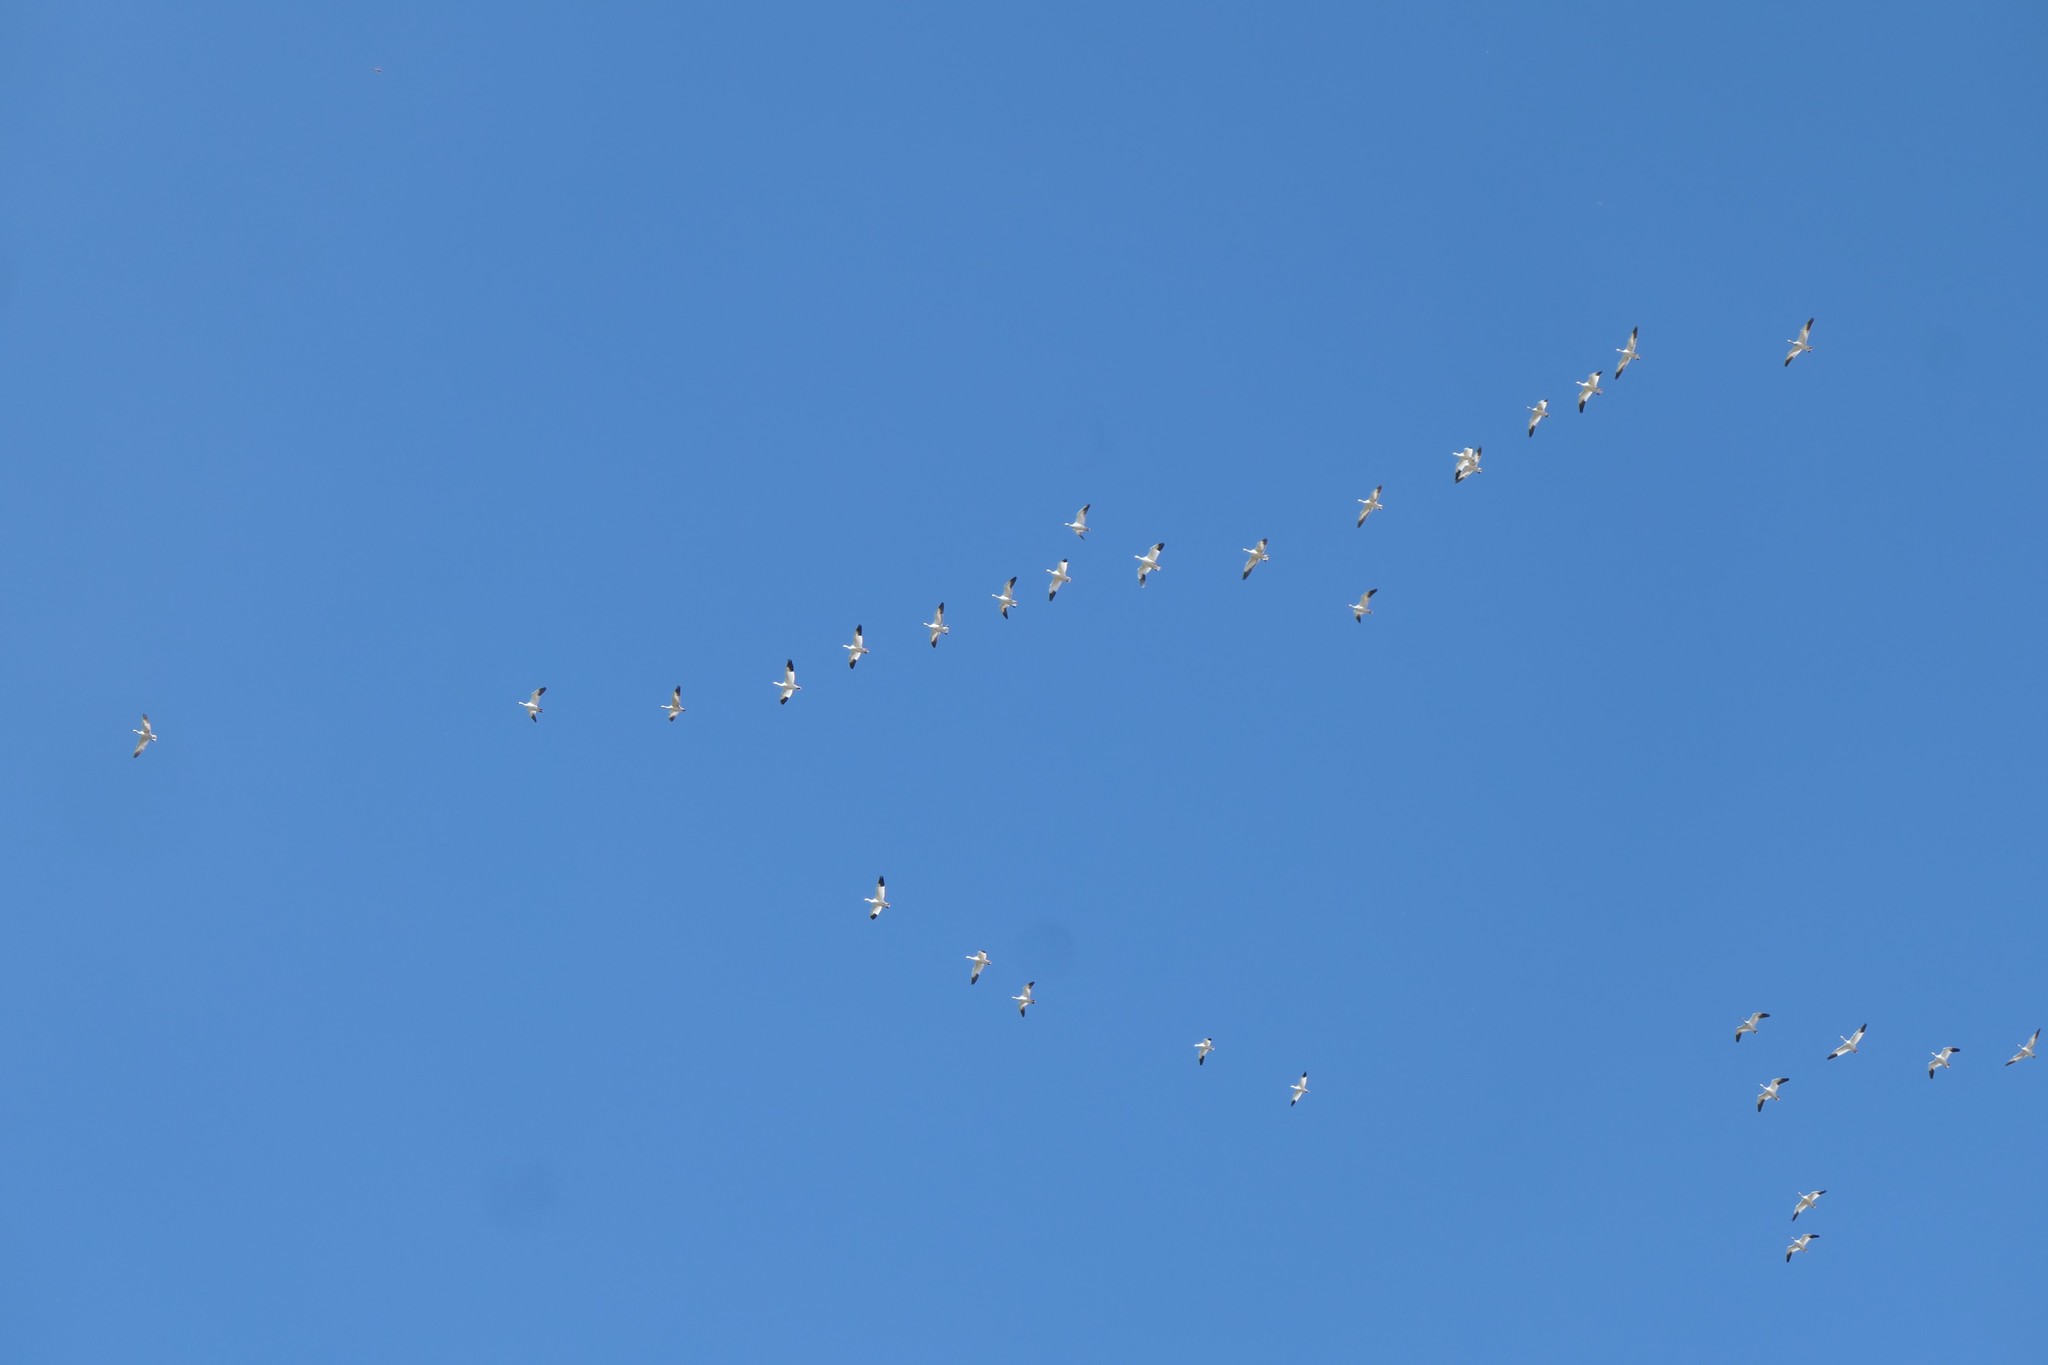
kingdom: Animalia
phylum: Chordata
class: Aves
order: Anseriformes
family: Anatidae
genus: Anser
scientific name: Anser caerulescens
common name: Snow goose
